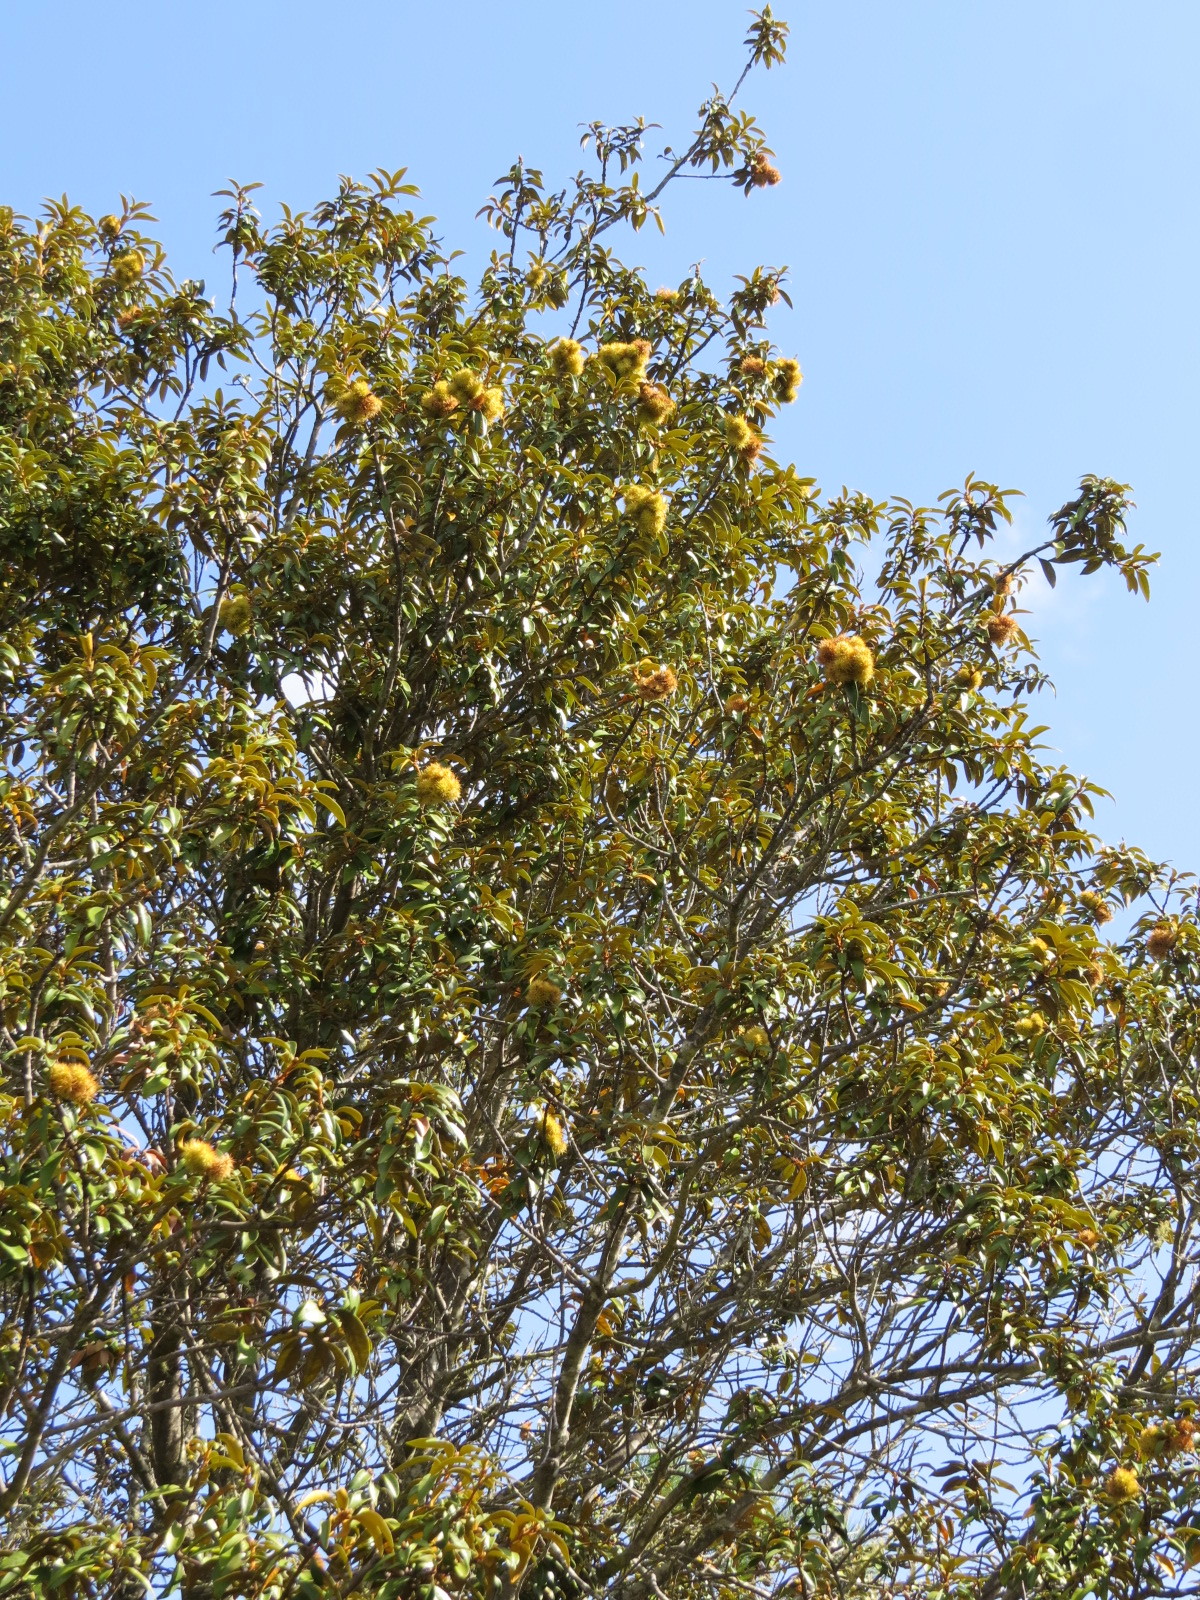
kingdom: Plantae
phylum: Tracheophyta
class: Magnoliopsida
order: Fagales
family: Fagaceae
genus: Chrysolepis
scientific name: Chrysolepis chrysophylla
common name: Giant chinquapin
